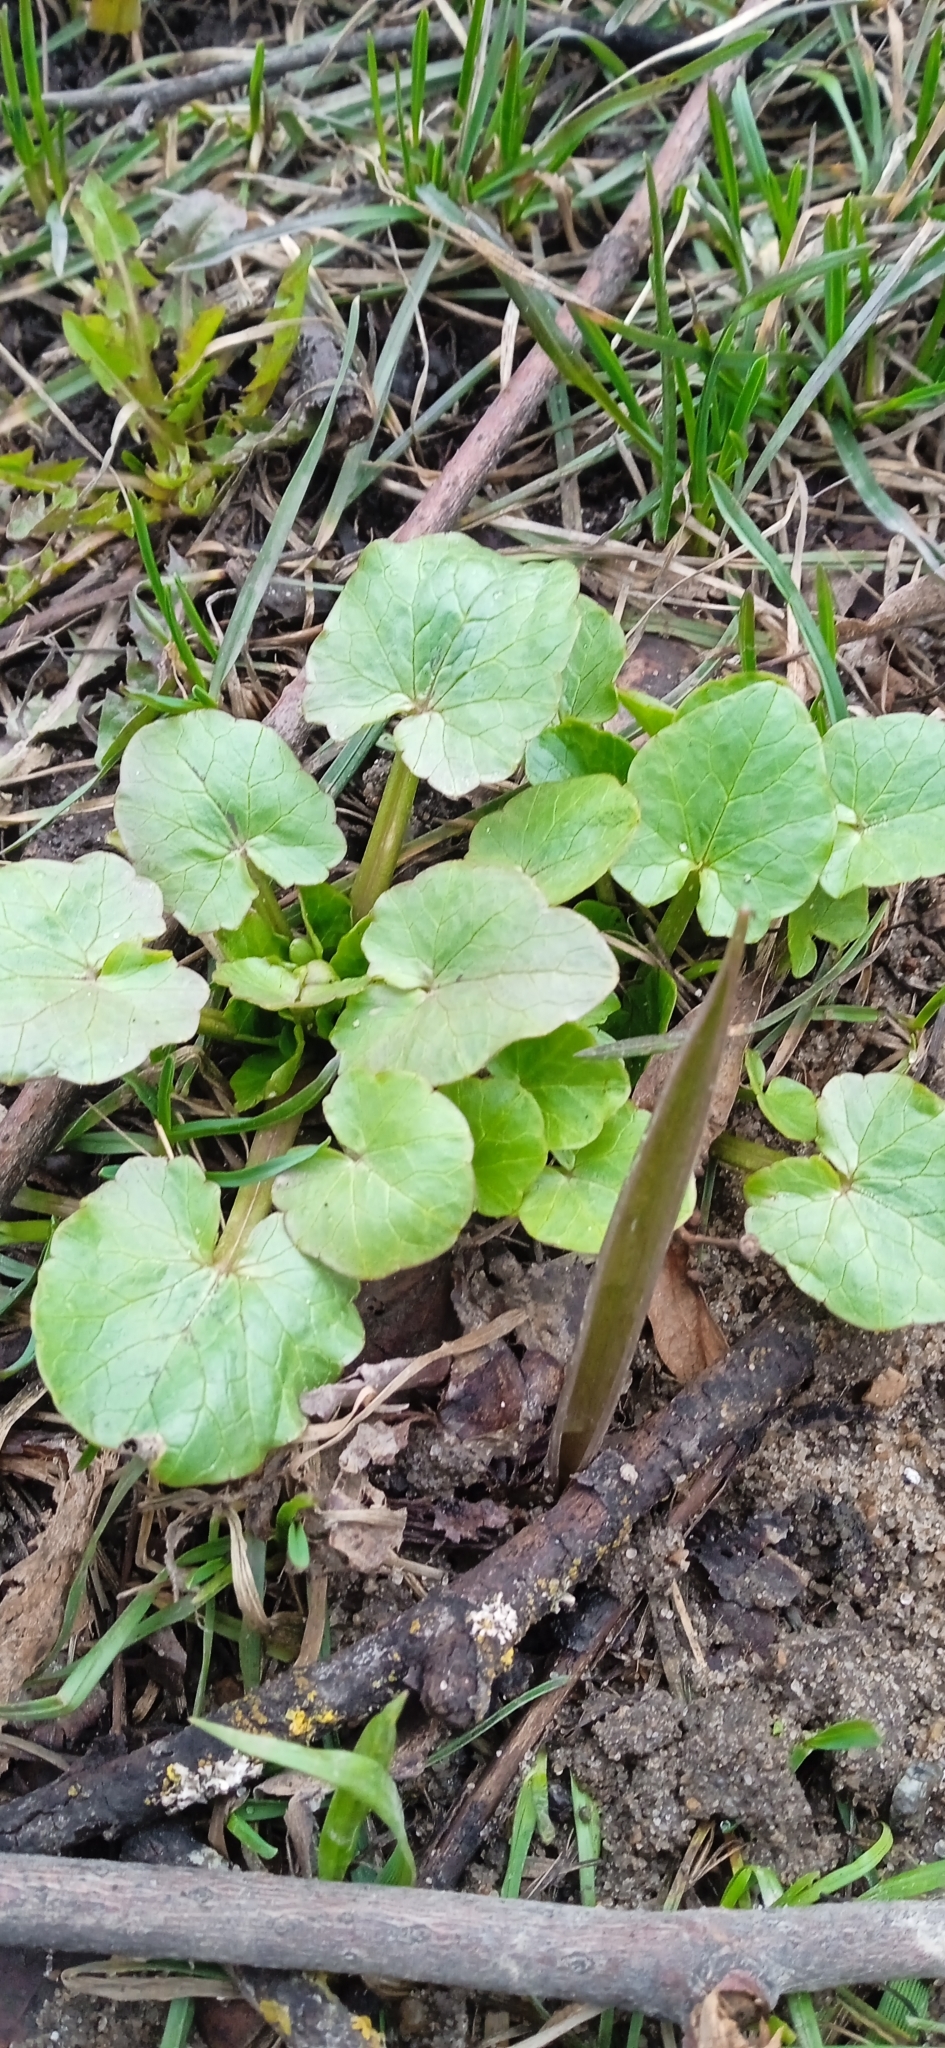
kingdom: Plantae
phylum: Tracheophyta
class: Magnoliopsida
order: Ranunculales
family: Ranunculaceae
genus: Ficaria
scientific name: Ficaria verna
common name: Lesser celandine
